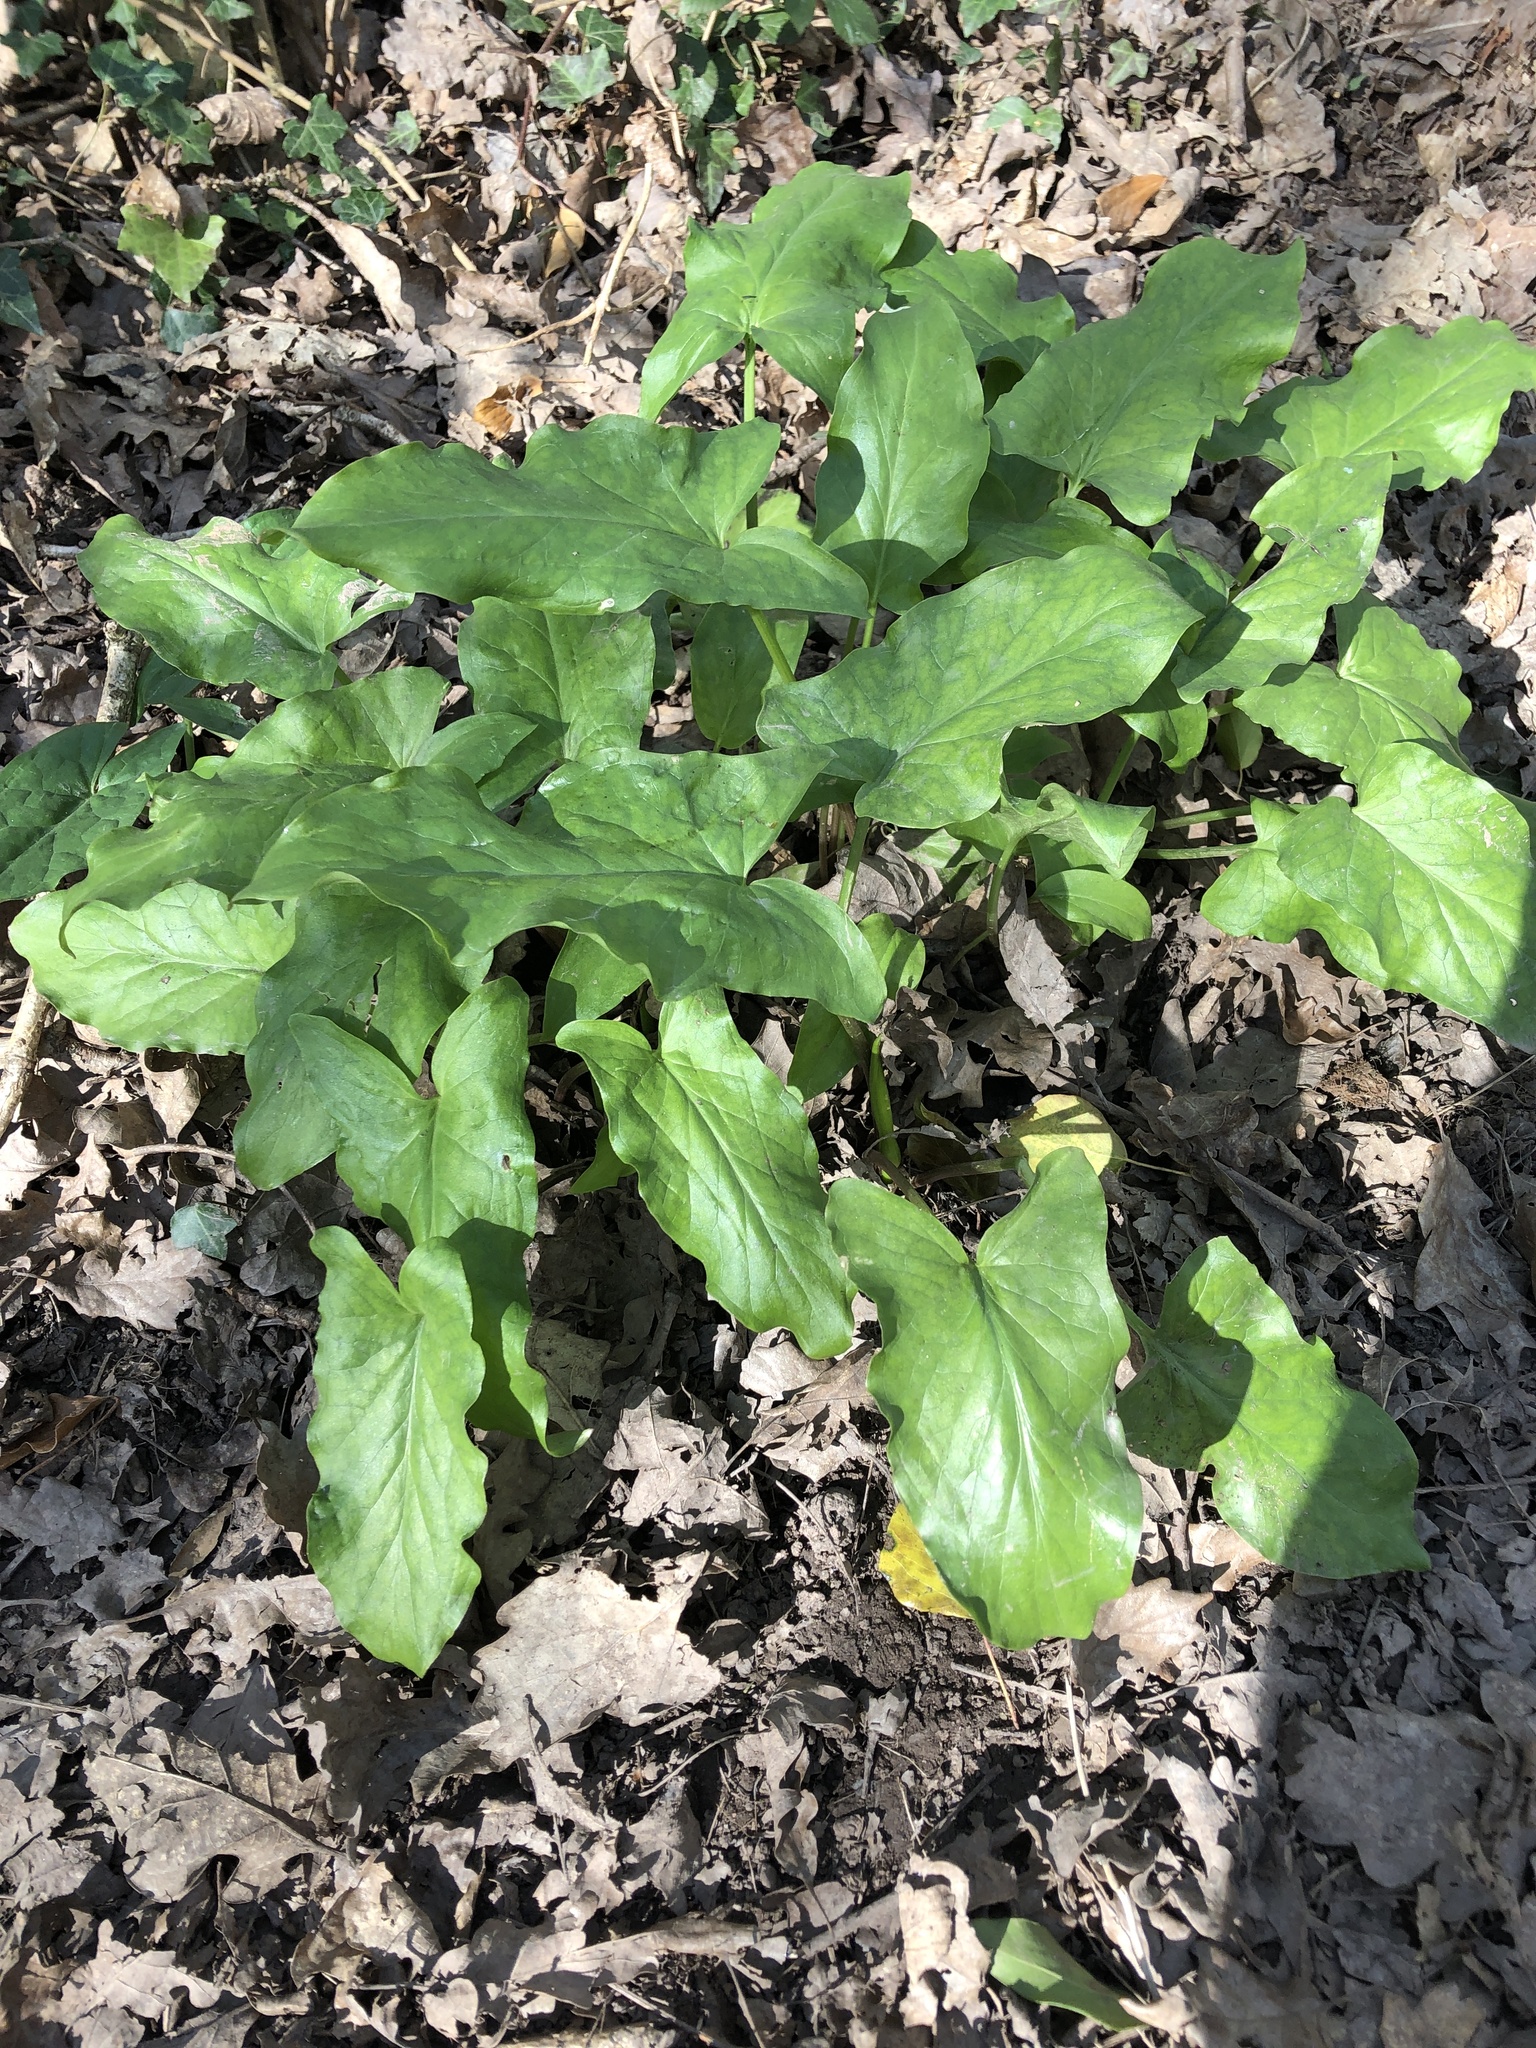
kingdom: Plantae
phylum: Tracheophyta
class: Liliopsida
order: Alismatales
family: Araceae
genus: Arum
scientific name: Arum maculatum
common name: Lords-and-ladies
